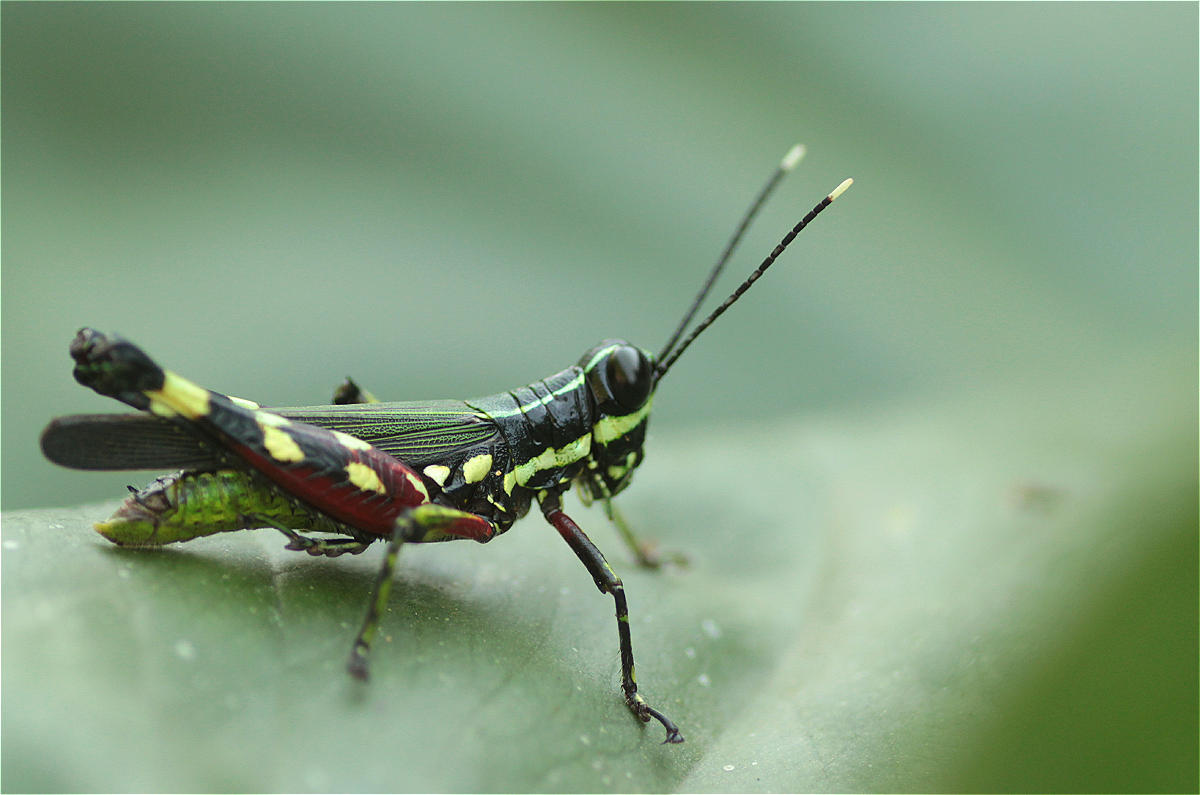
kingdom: Animalia
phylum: Arthropoda
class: Insecta
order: Orthoptera
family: Acrididae
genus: Tetrataenia
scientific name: Tetrataenia surinama
